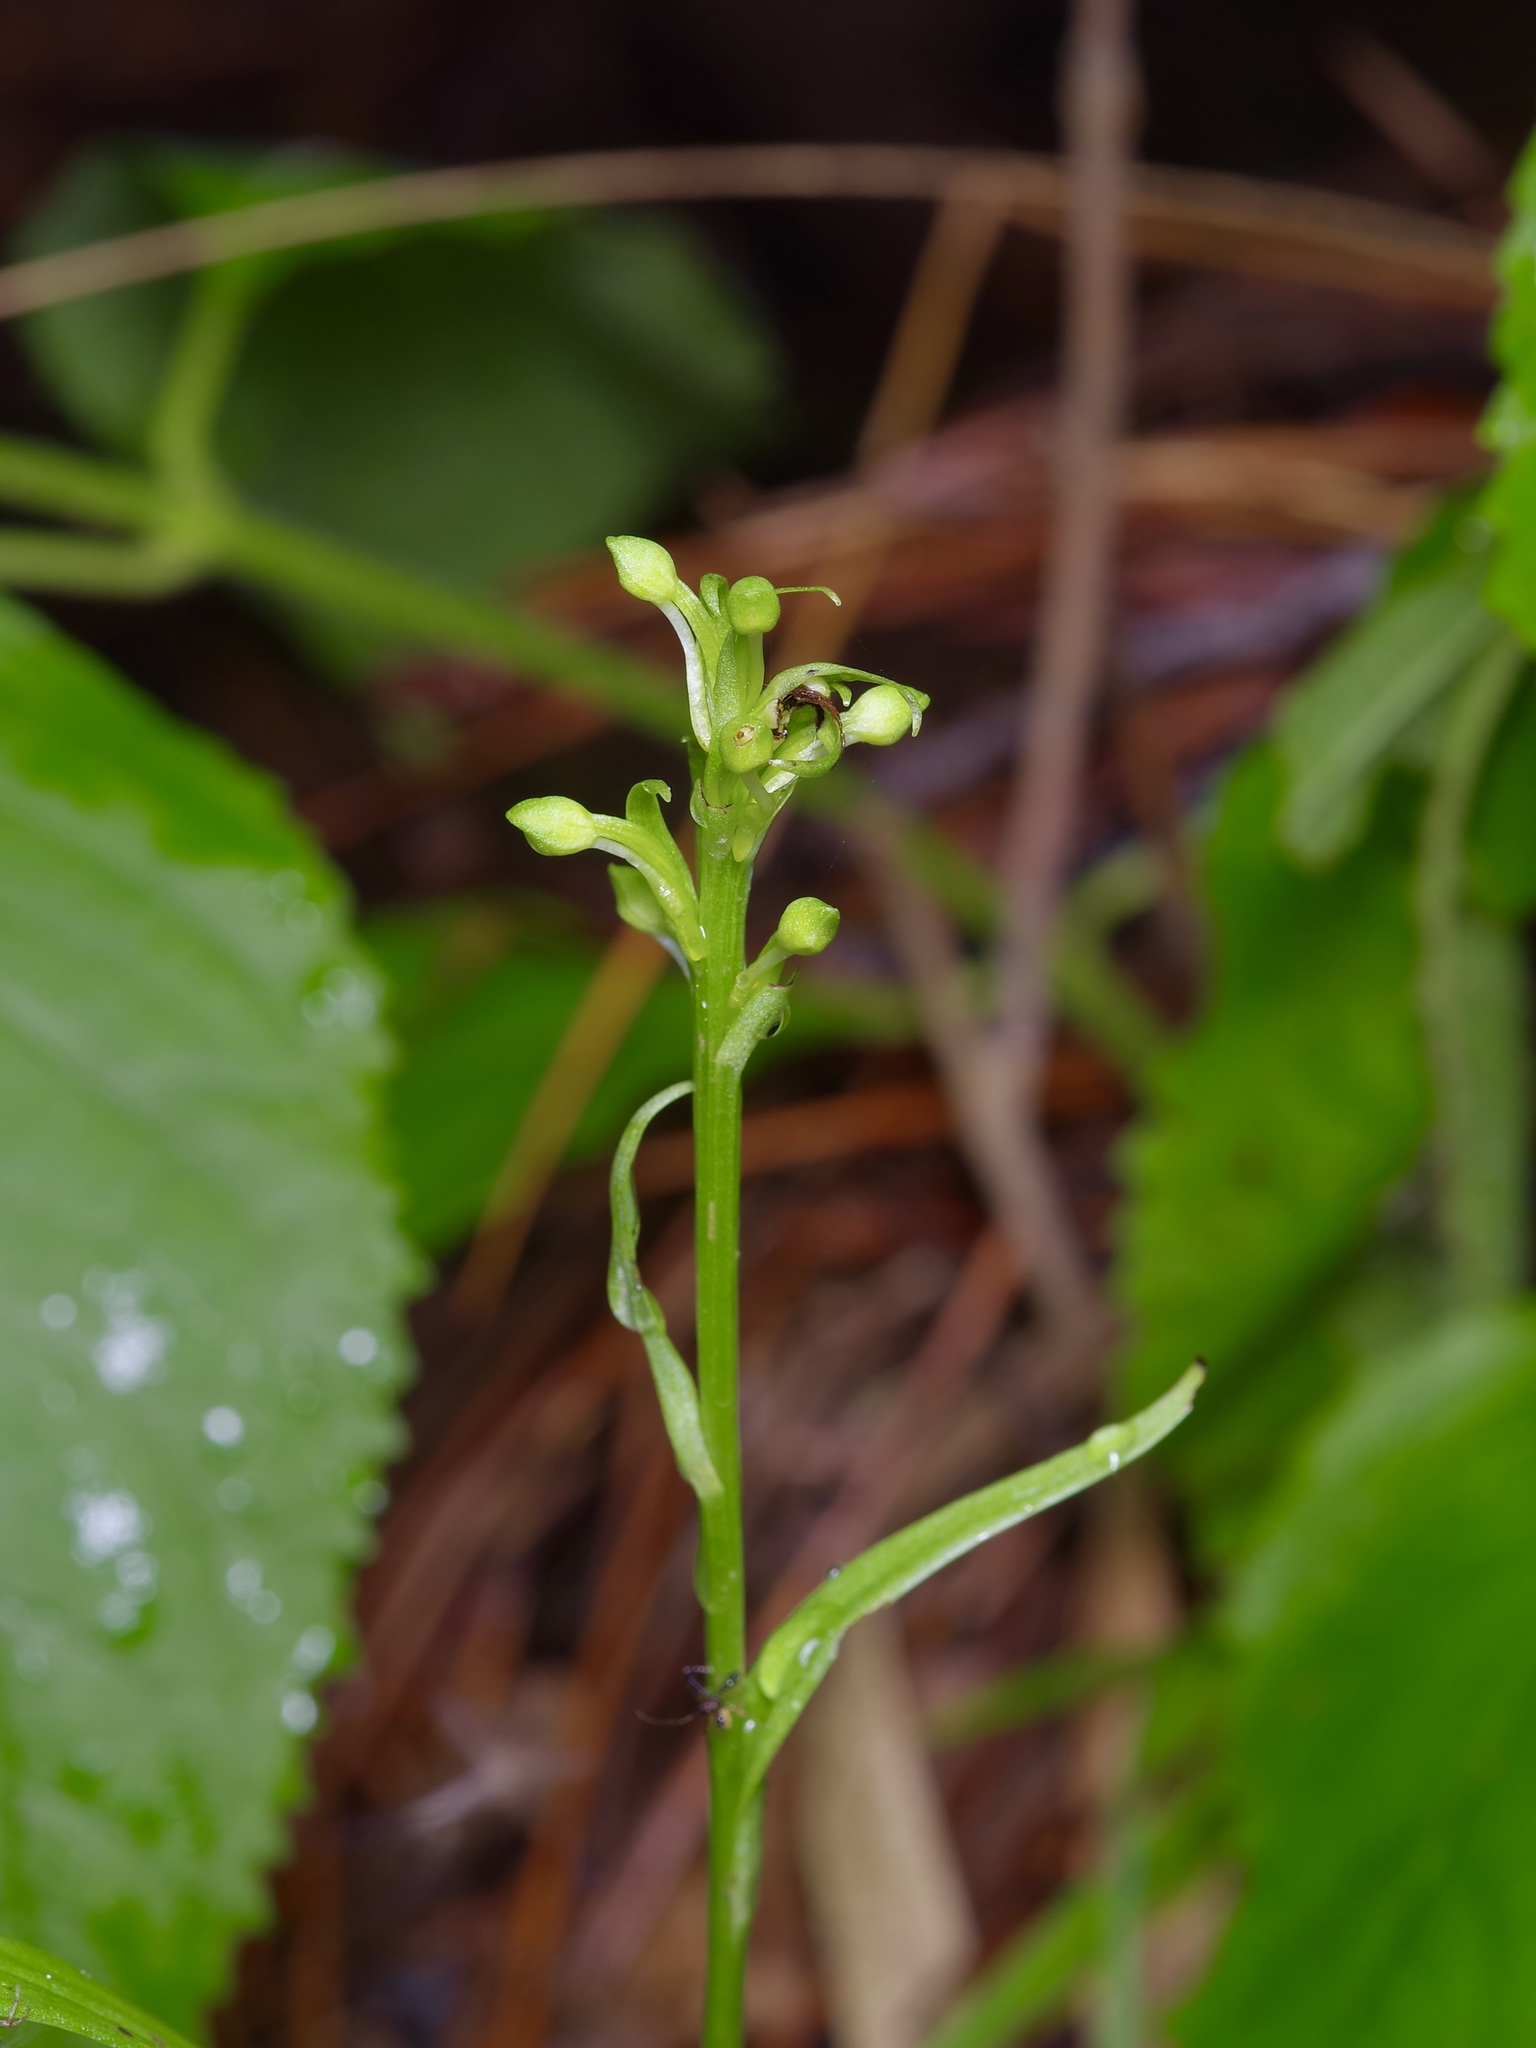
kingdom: Plantae
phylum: Tracheophyta
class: Liliopsida
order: Asparagales
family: Orchidaceae
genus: Platanthera
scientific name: Platanthera flava
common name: Gypsy-spikes
